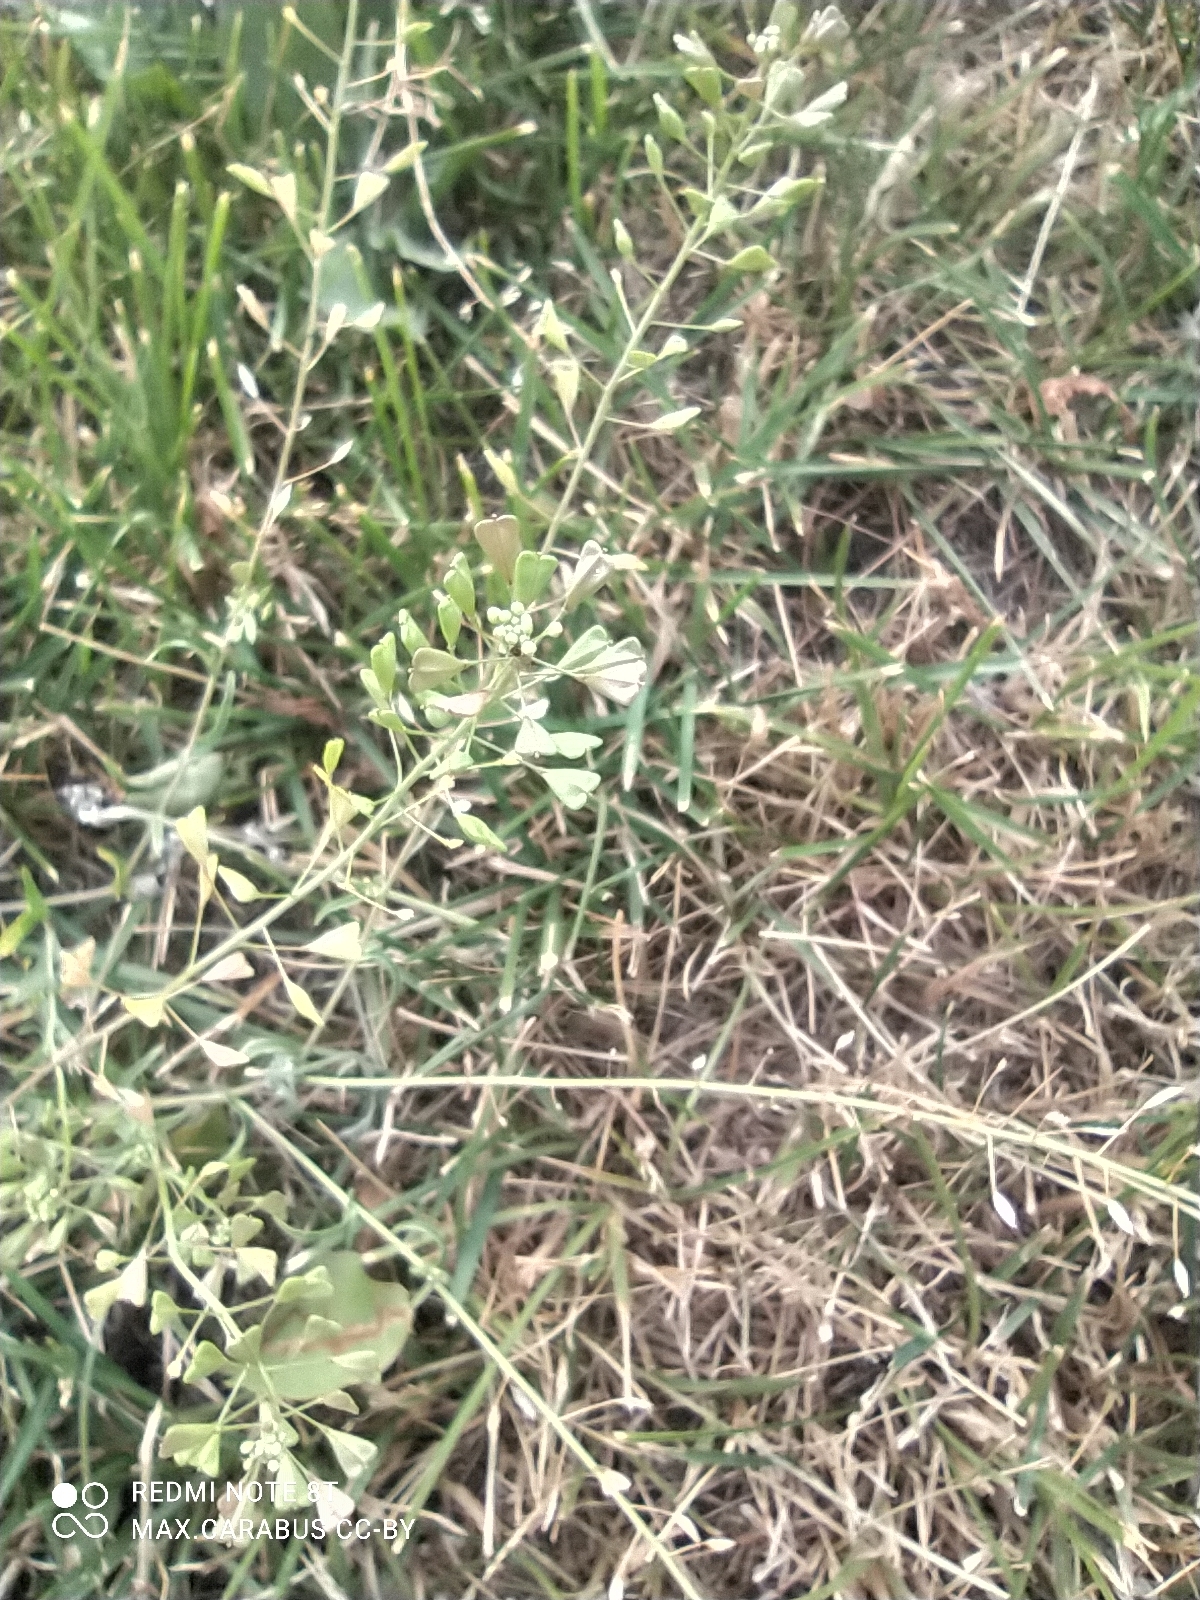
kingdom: Plantae
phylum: Tracheophyta
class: Magnoliopsida
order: Brassicales
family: Brassicaceae
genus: Capsella
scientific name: Capsella bursa-pastoris
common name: Shepherd's purse
